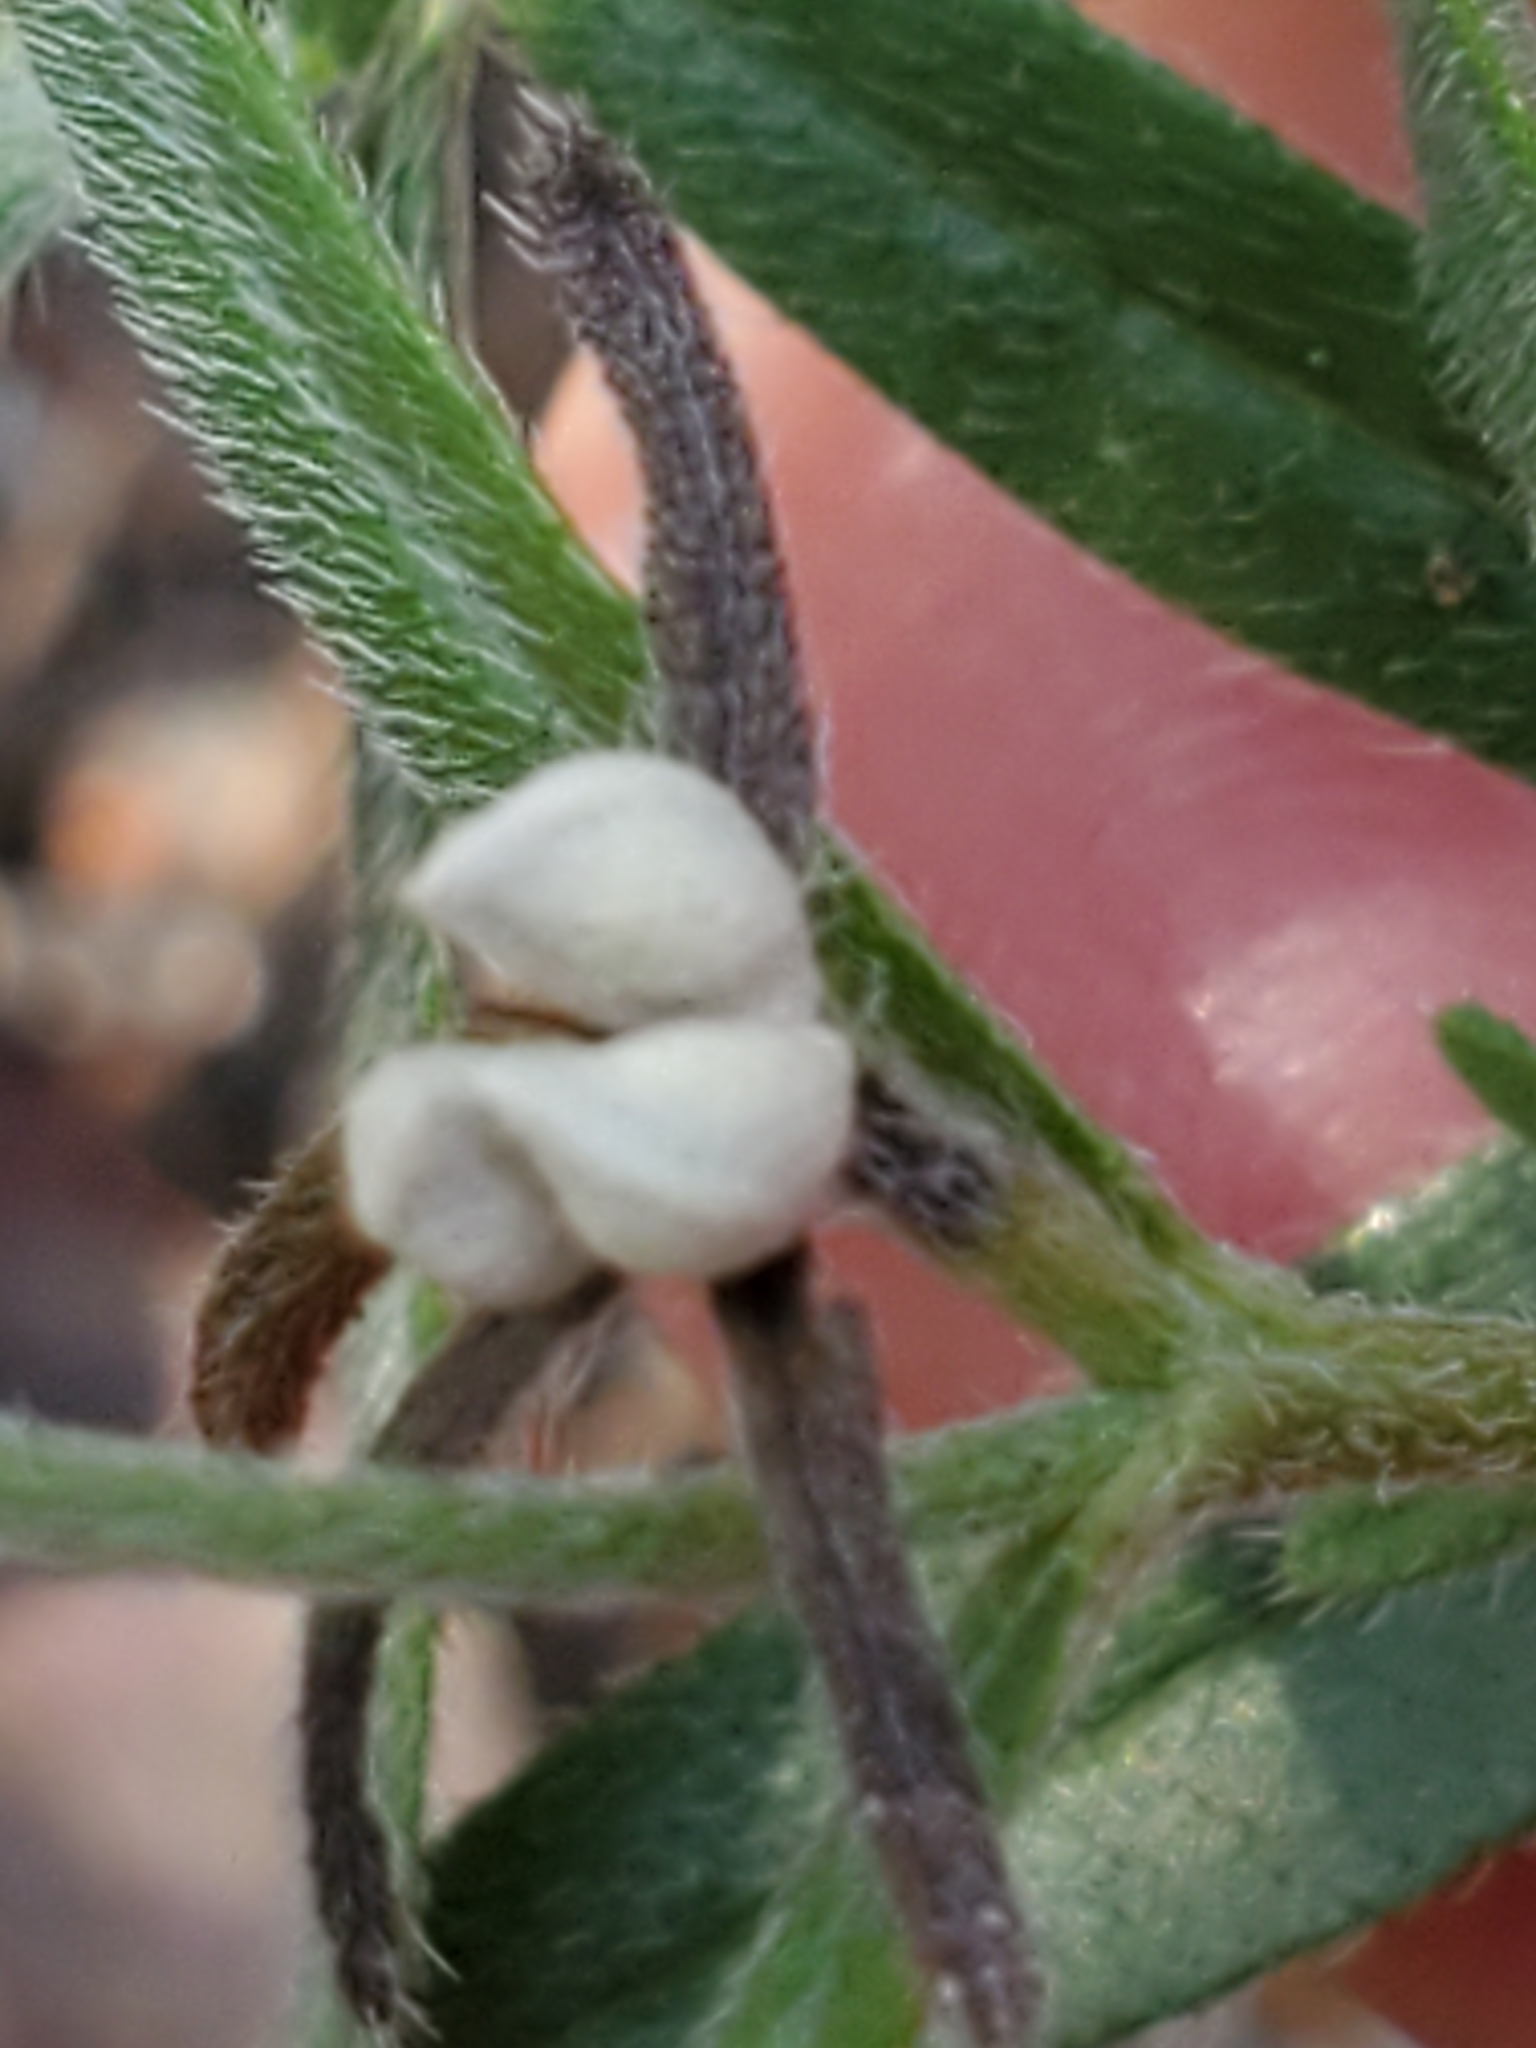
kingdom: Plantae
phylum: Tracheophyta
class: Magnoliopsida
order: Boraginales
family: Boraginaceae
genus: Buglossoides
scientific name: Buglossoides arvensis
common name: Corn gromwell
